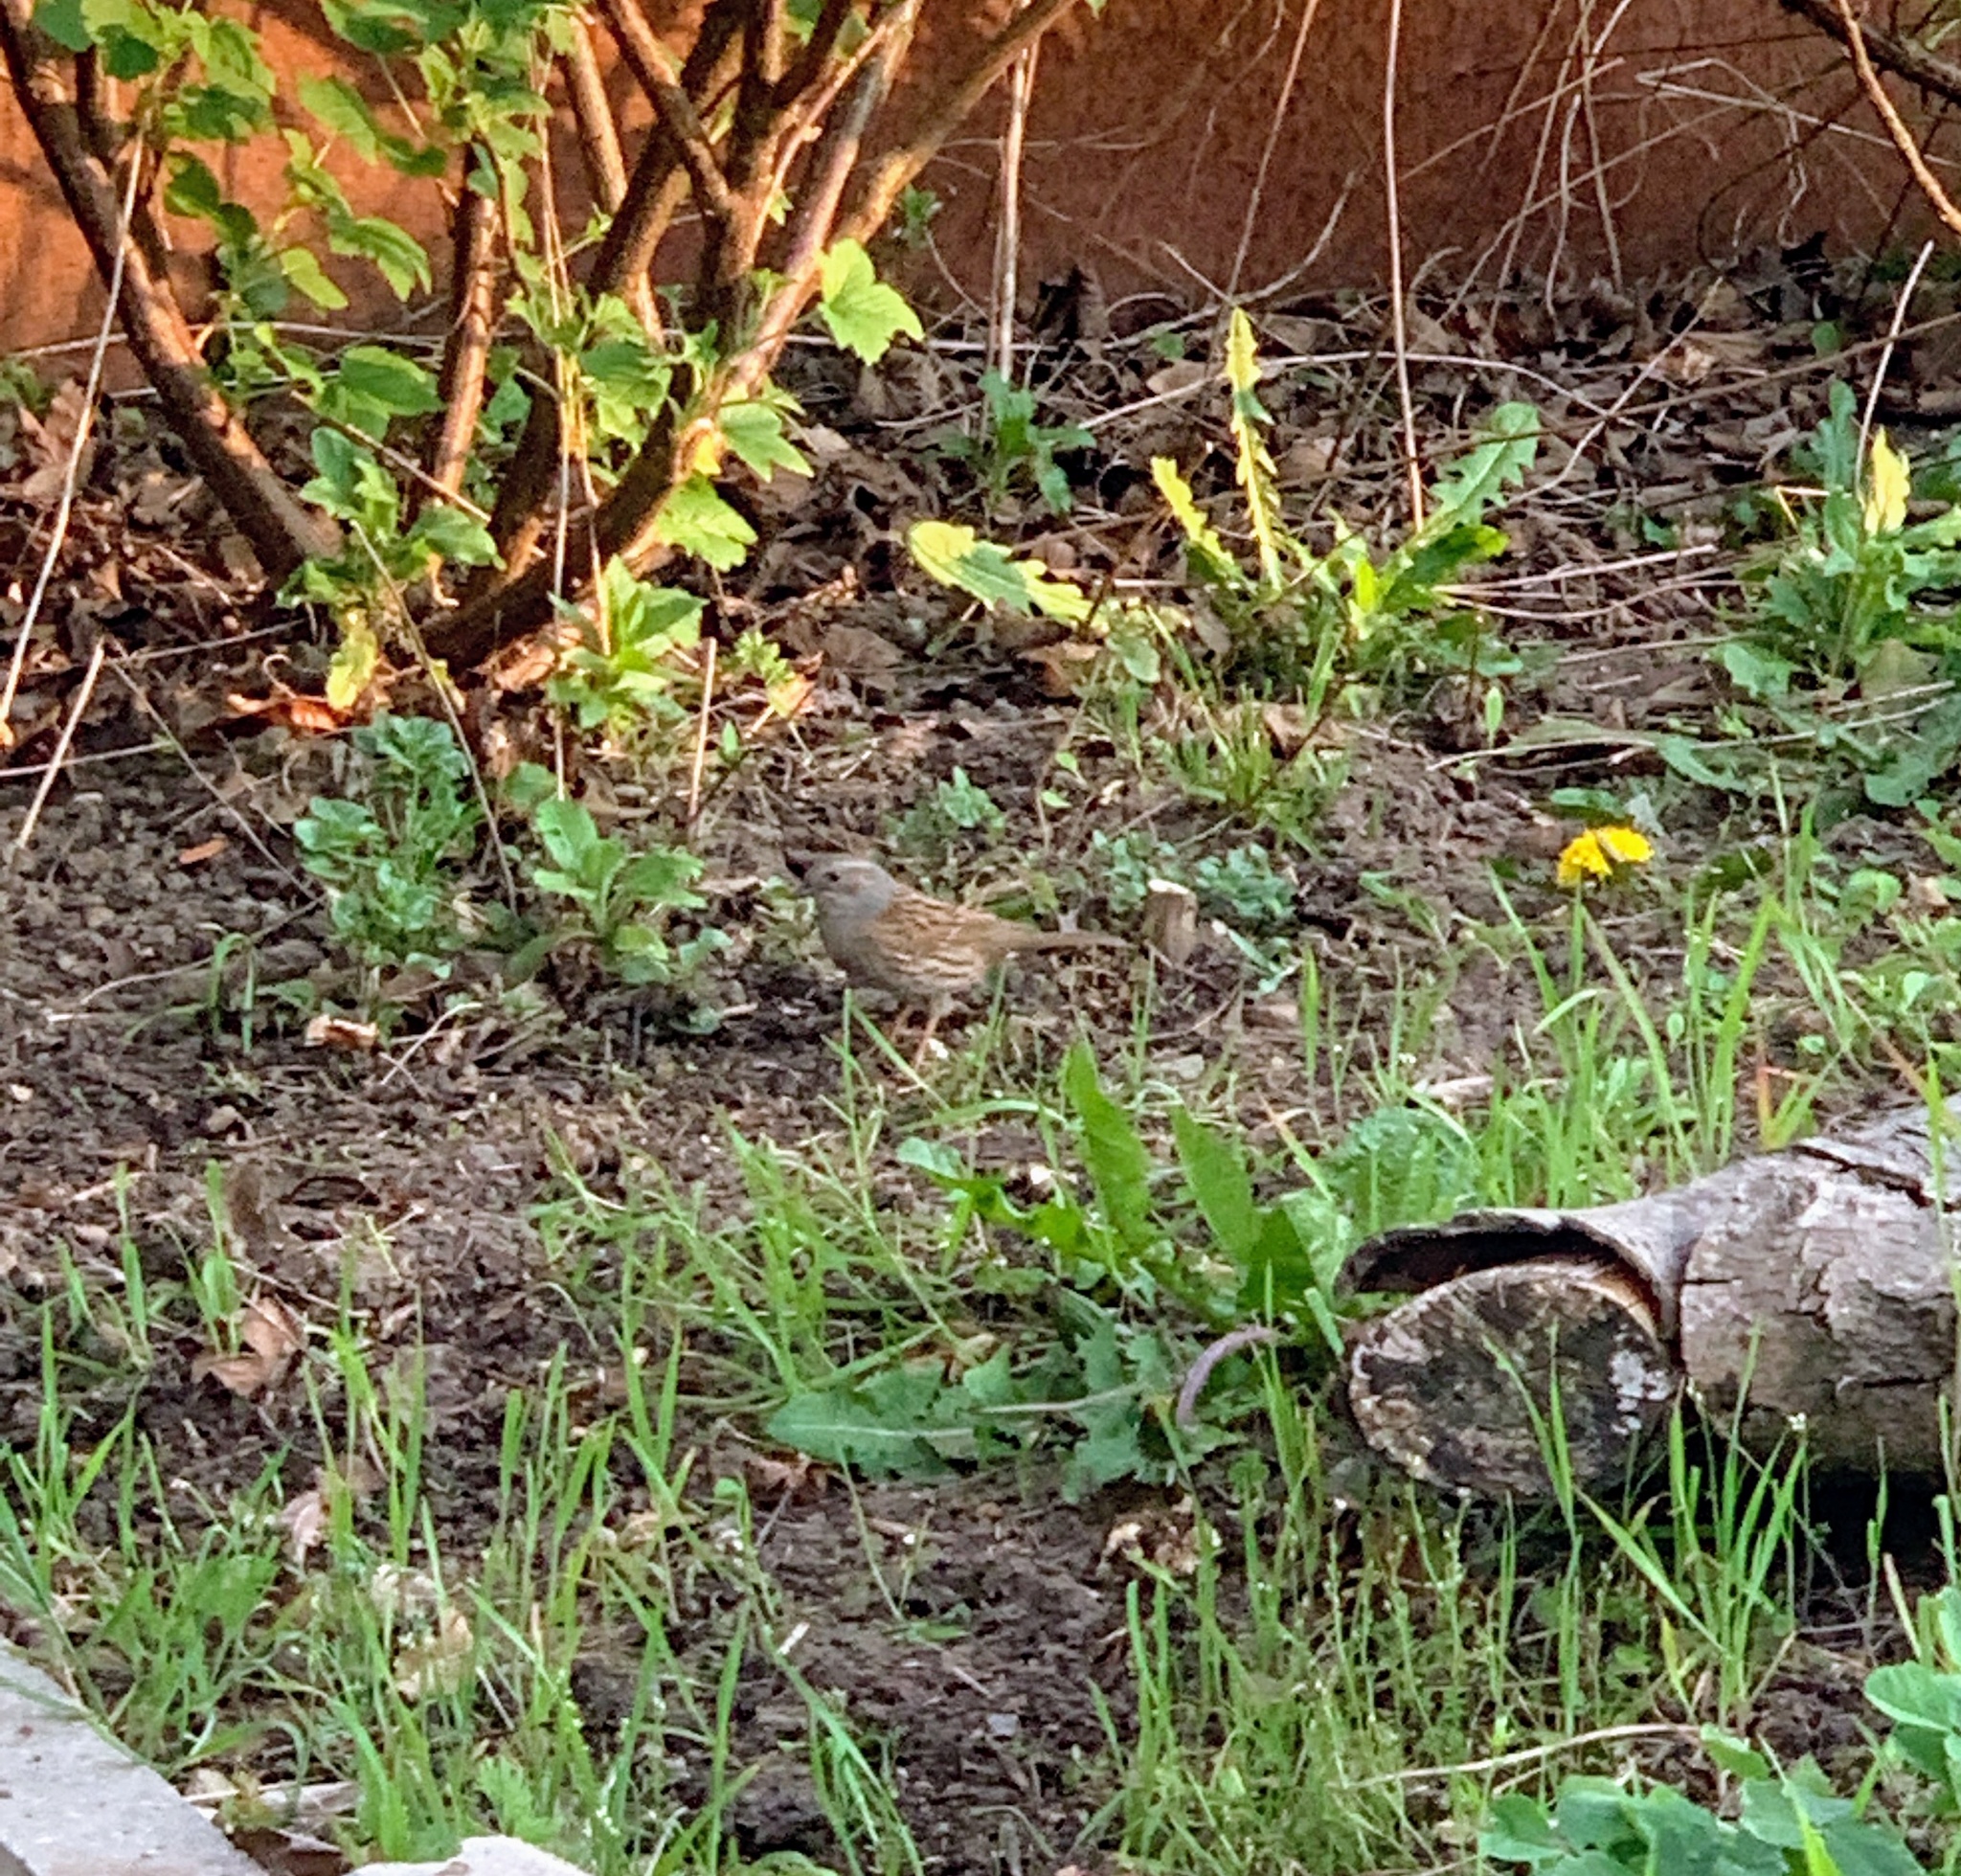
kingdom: Animalia
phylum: Chordata
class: Aves
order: Passeriformes
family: Prunellidae
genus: Prunella
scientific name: Prunella modularis
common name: Dunnock
